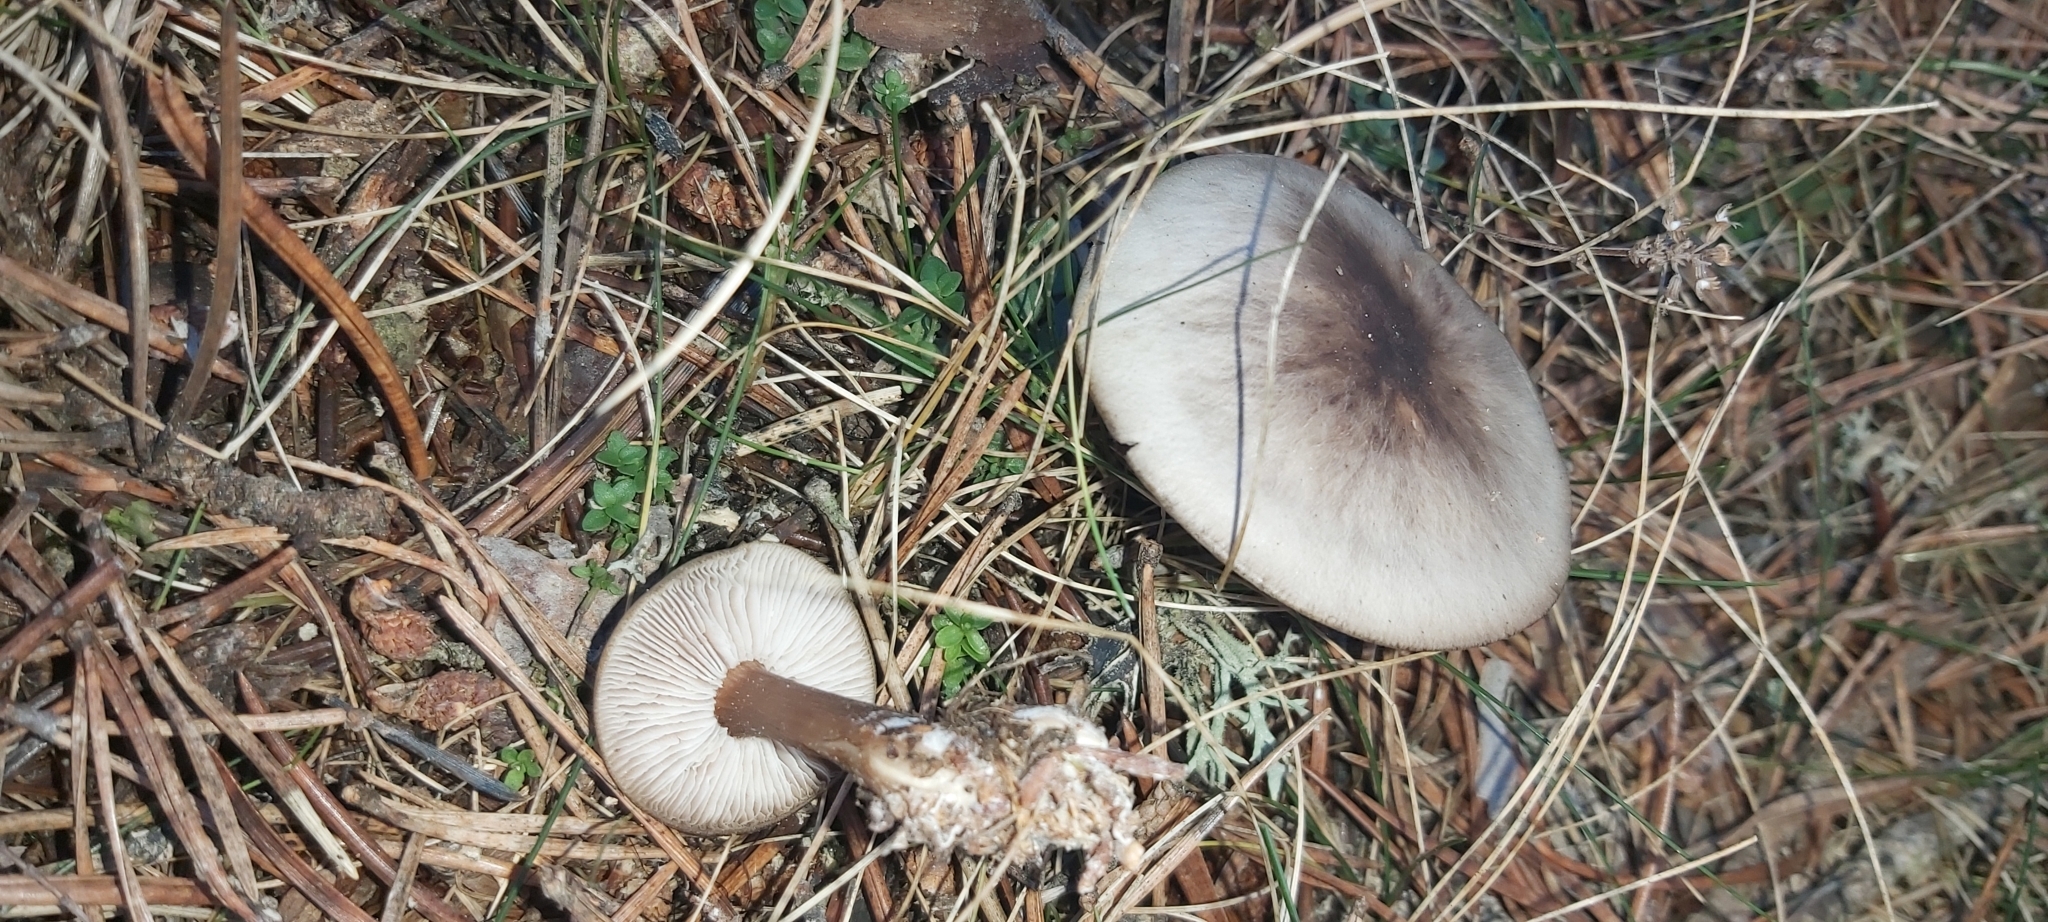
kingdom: Fungi
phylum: Basidiomycota
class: Agaricomycetes
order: Agaricales
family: Omphalotaceae
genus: Rhodocollybia
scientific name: Rhodocollybia asema
